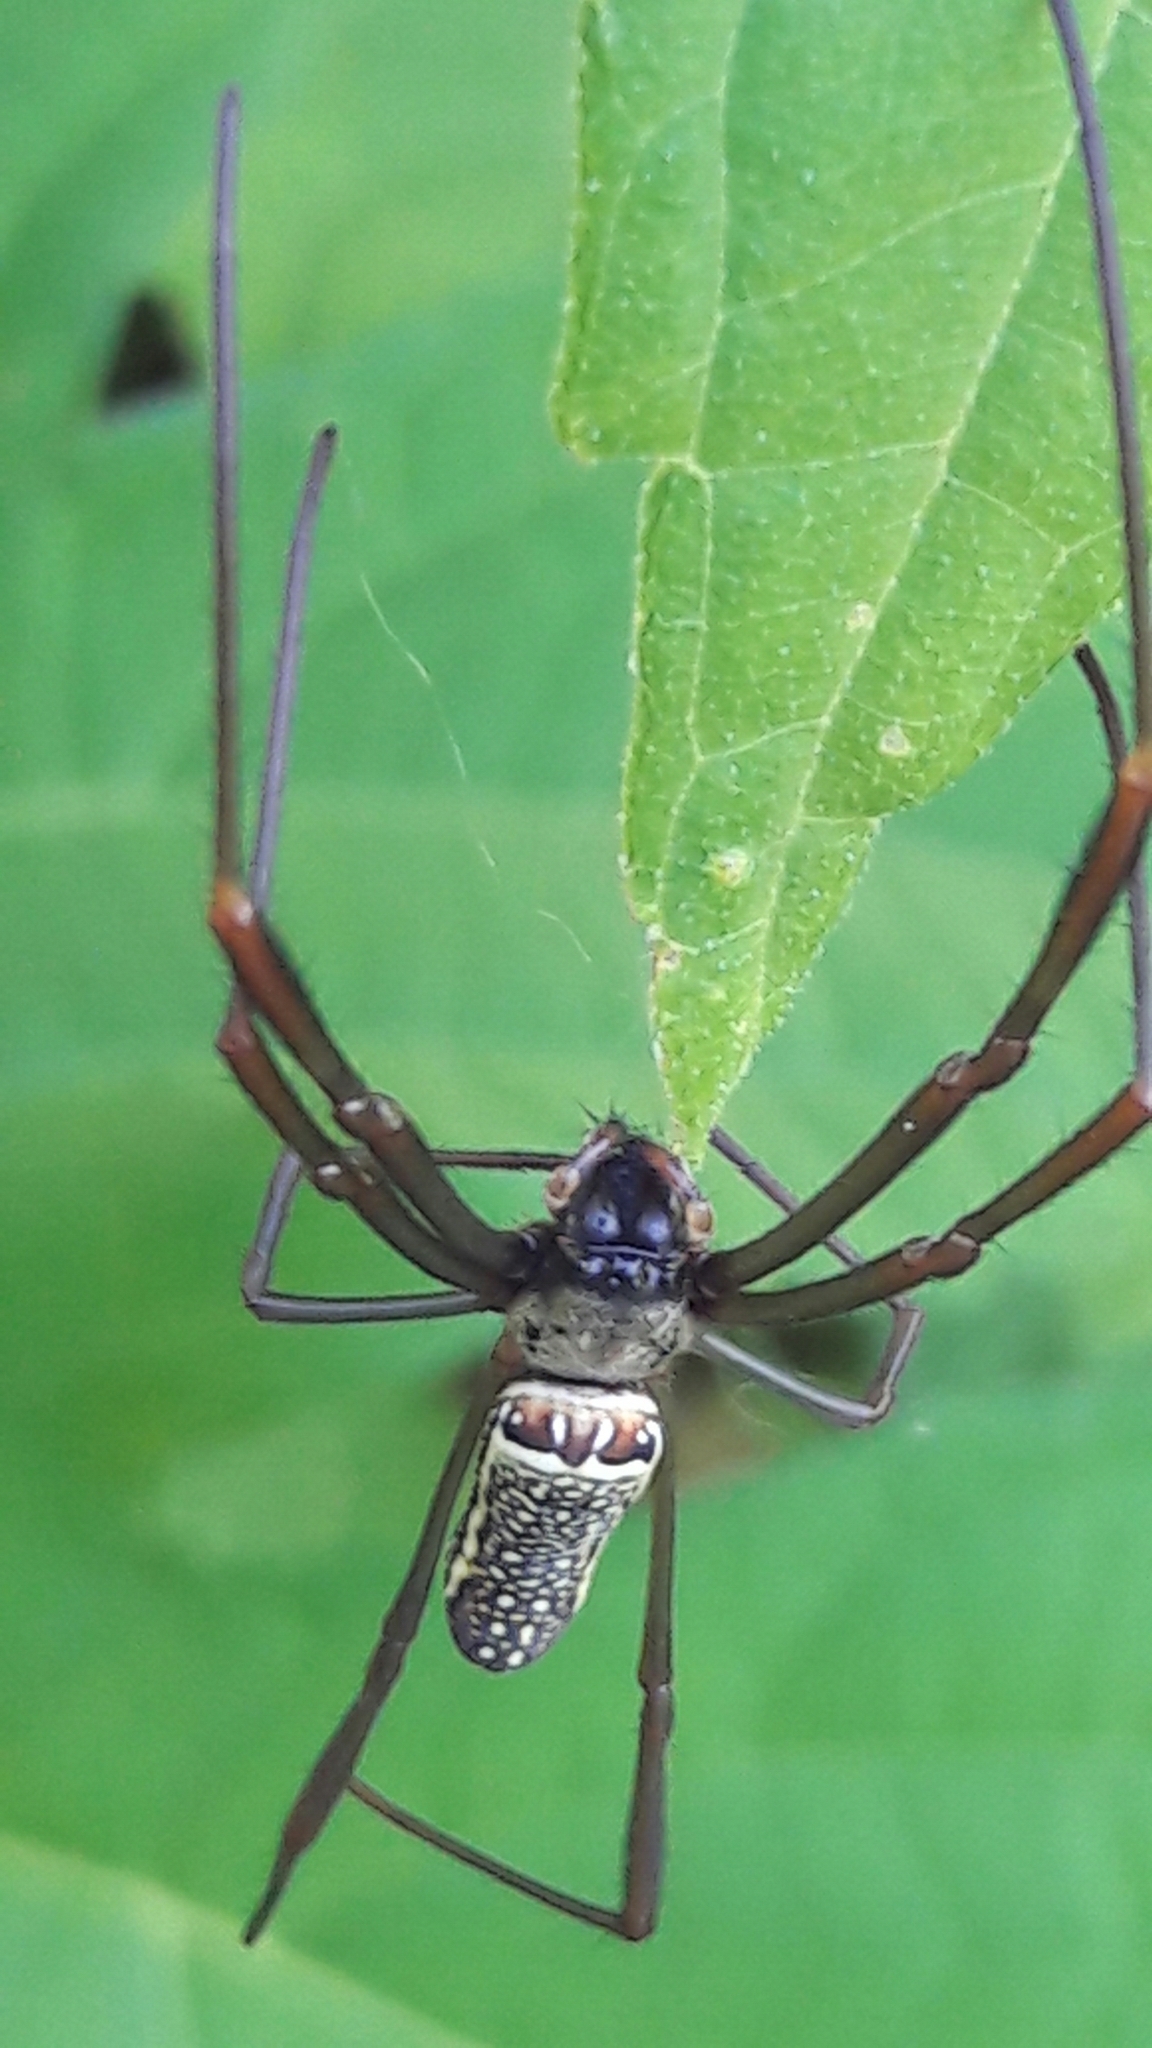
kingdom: Animalia
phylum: Arthropoda
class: Arachnida
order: Araneae
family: Araneidae
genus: Trichonephila
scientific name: Trichonephila clavipes
